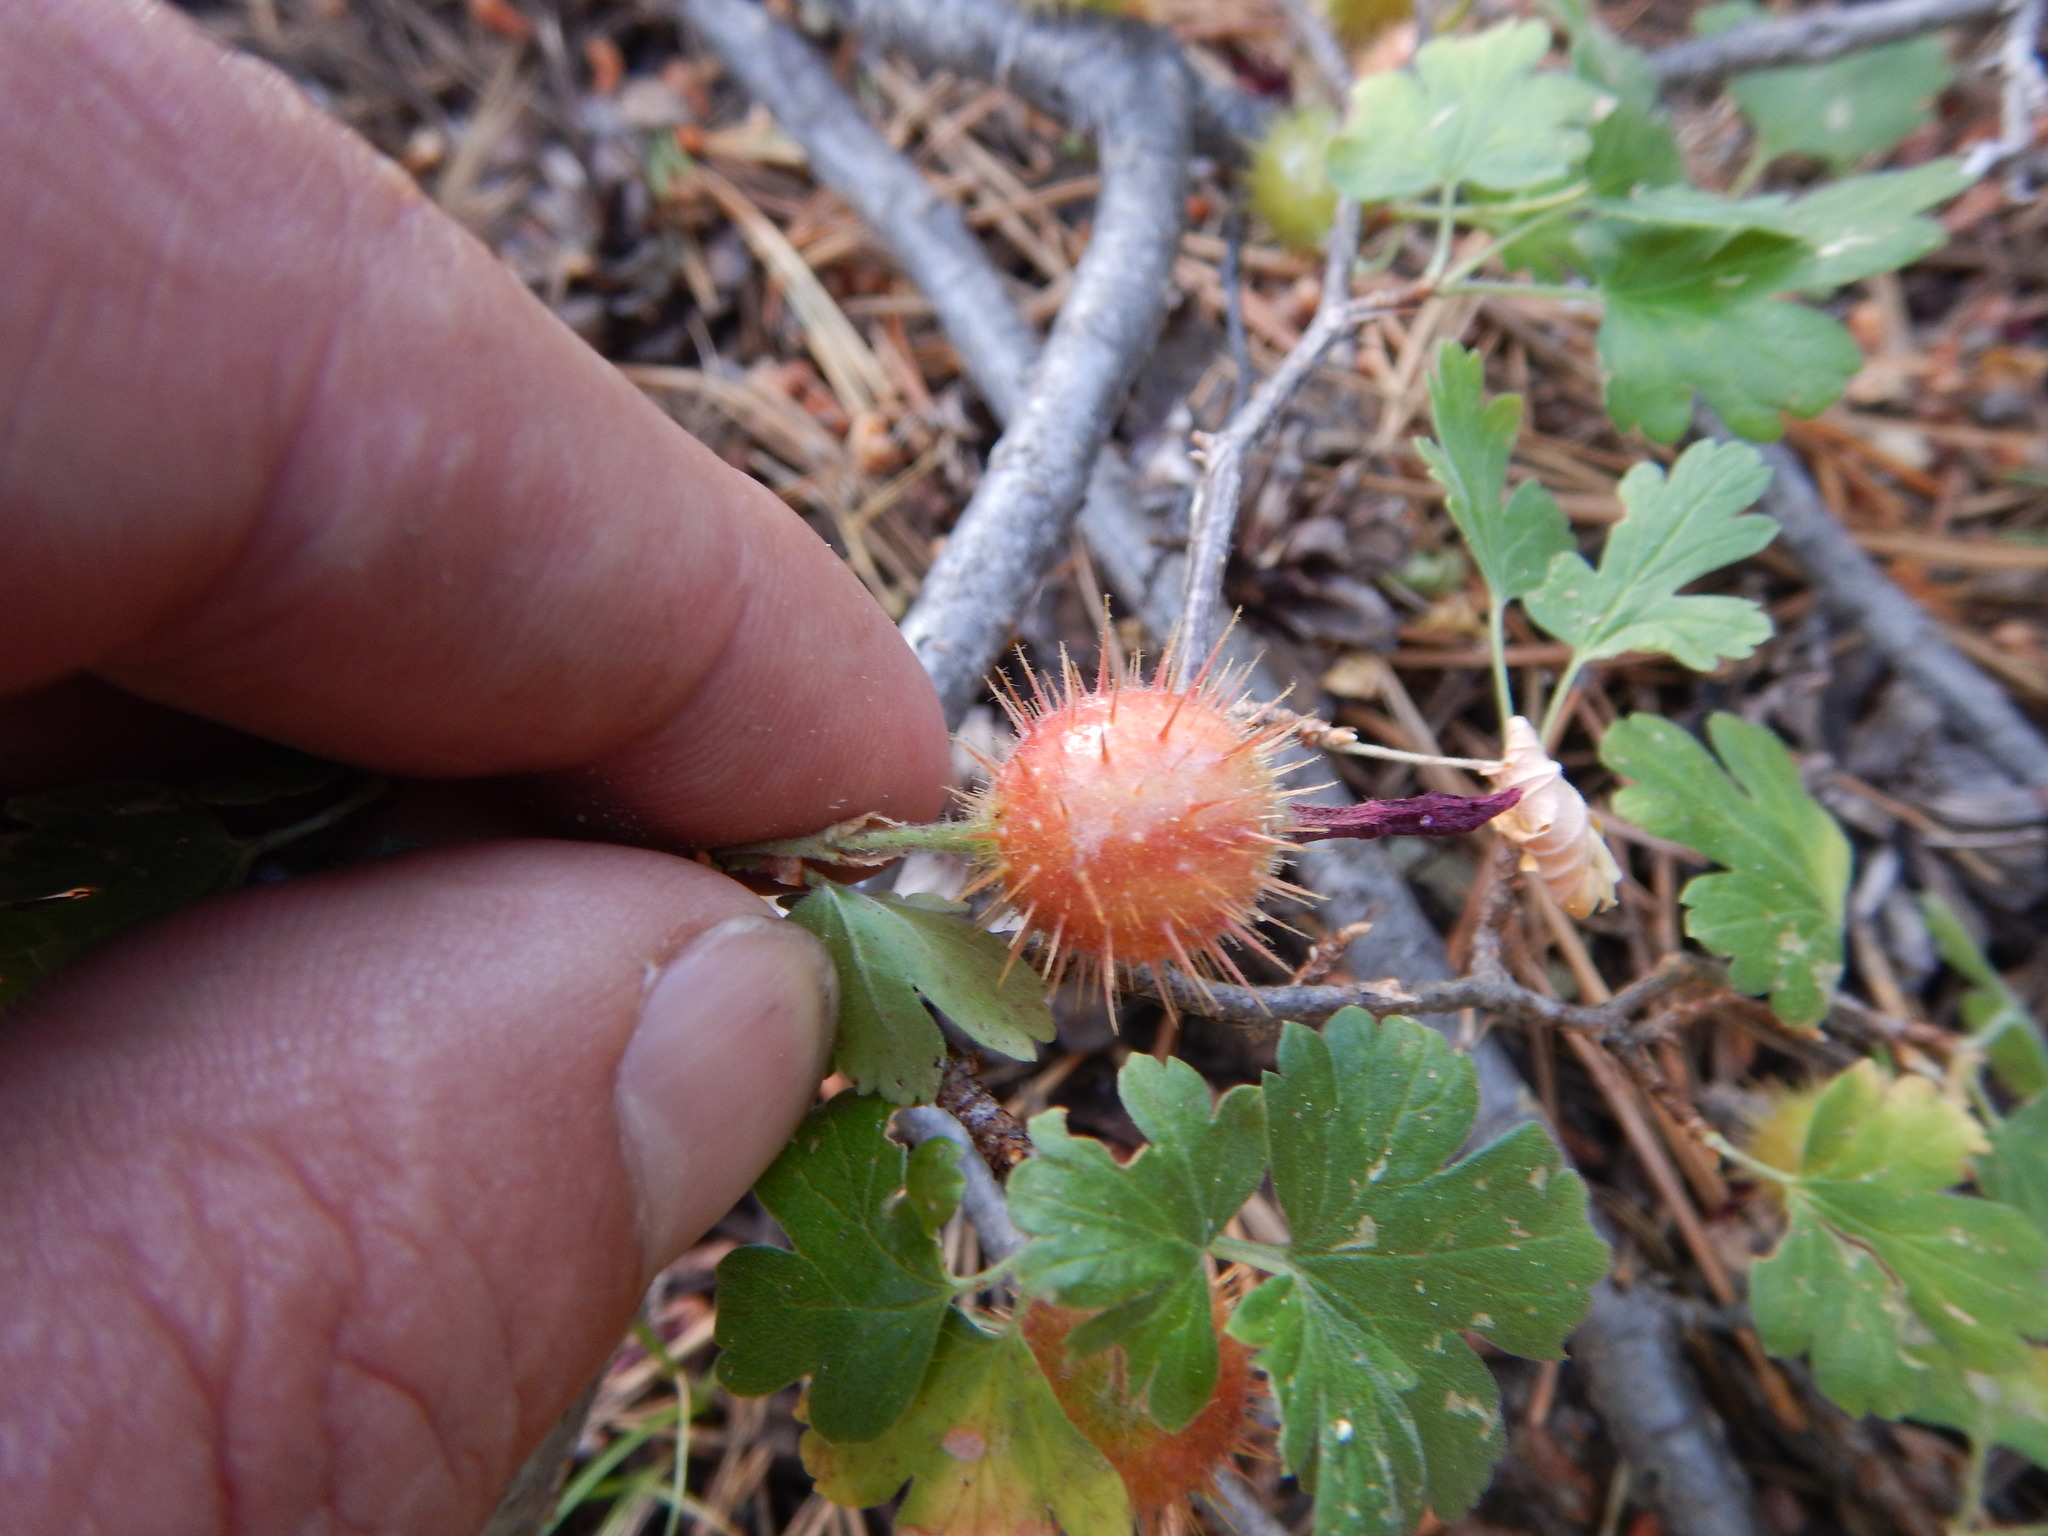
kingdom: Plantae
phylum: Tracheophyta
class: Magnoliopsida
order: Saxifragales
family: Grossulariaceae
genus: Ribes
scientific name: Ribes roezlii
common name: Sierra gooseberry
